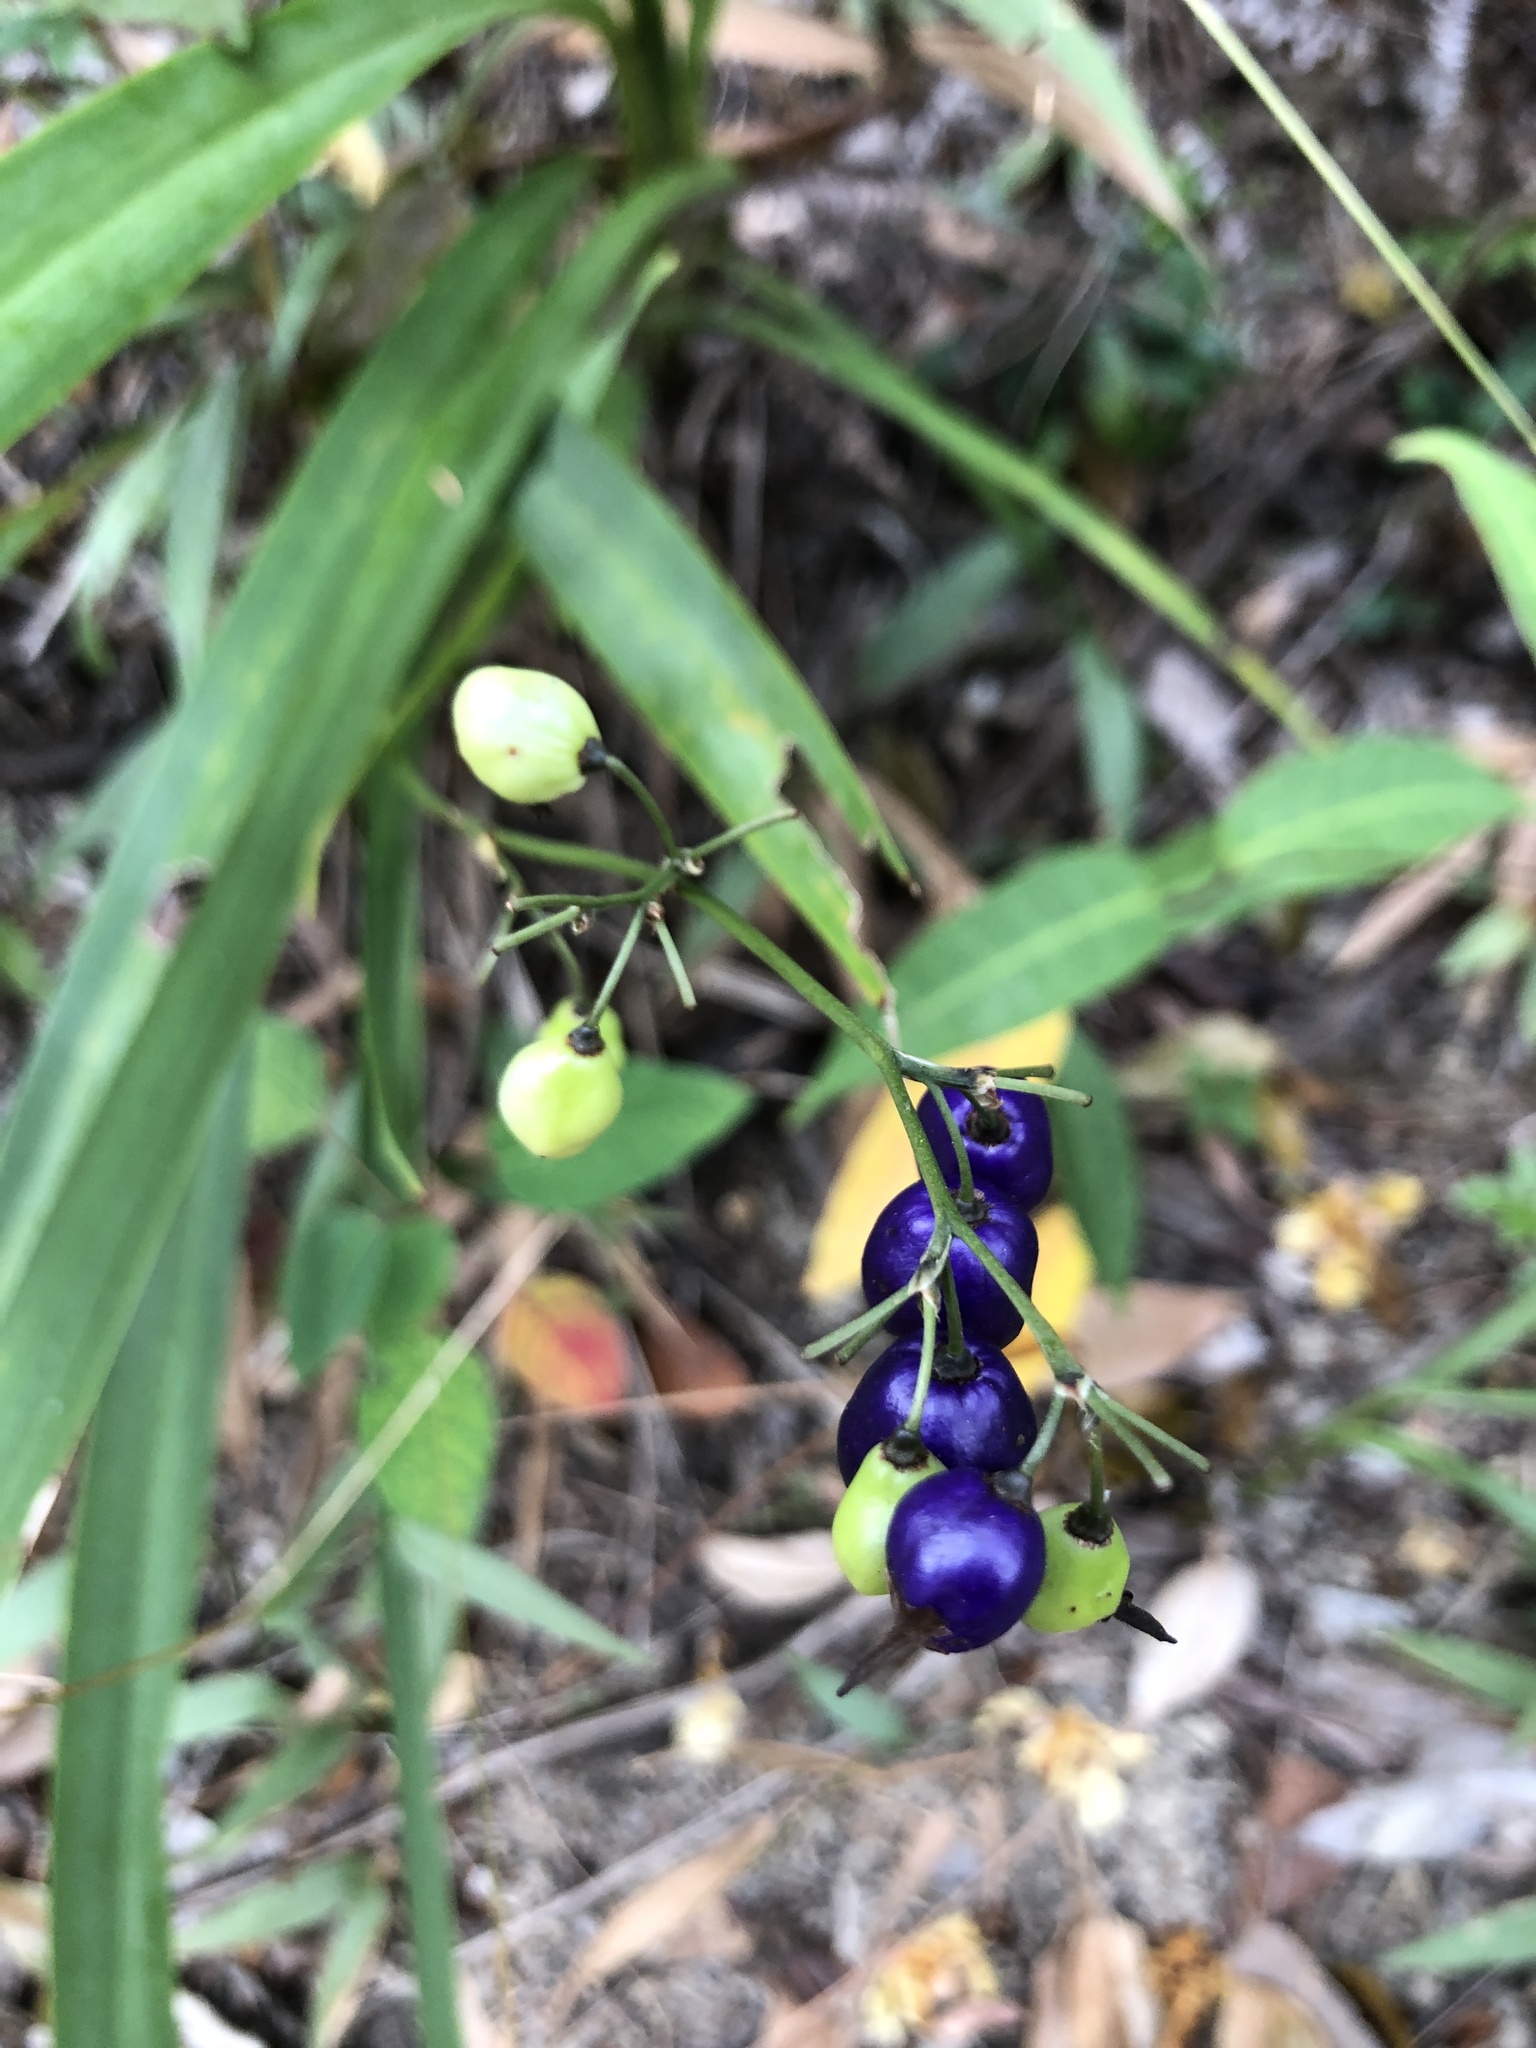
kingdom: Plantae
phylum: Tracheophyta
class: Liliopsida
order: Asparagales
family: Asphodelaceae
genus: Dianella
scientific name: Dianella ensifolia
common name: New zealand lilyplant
